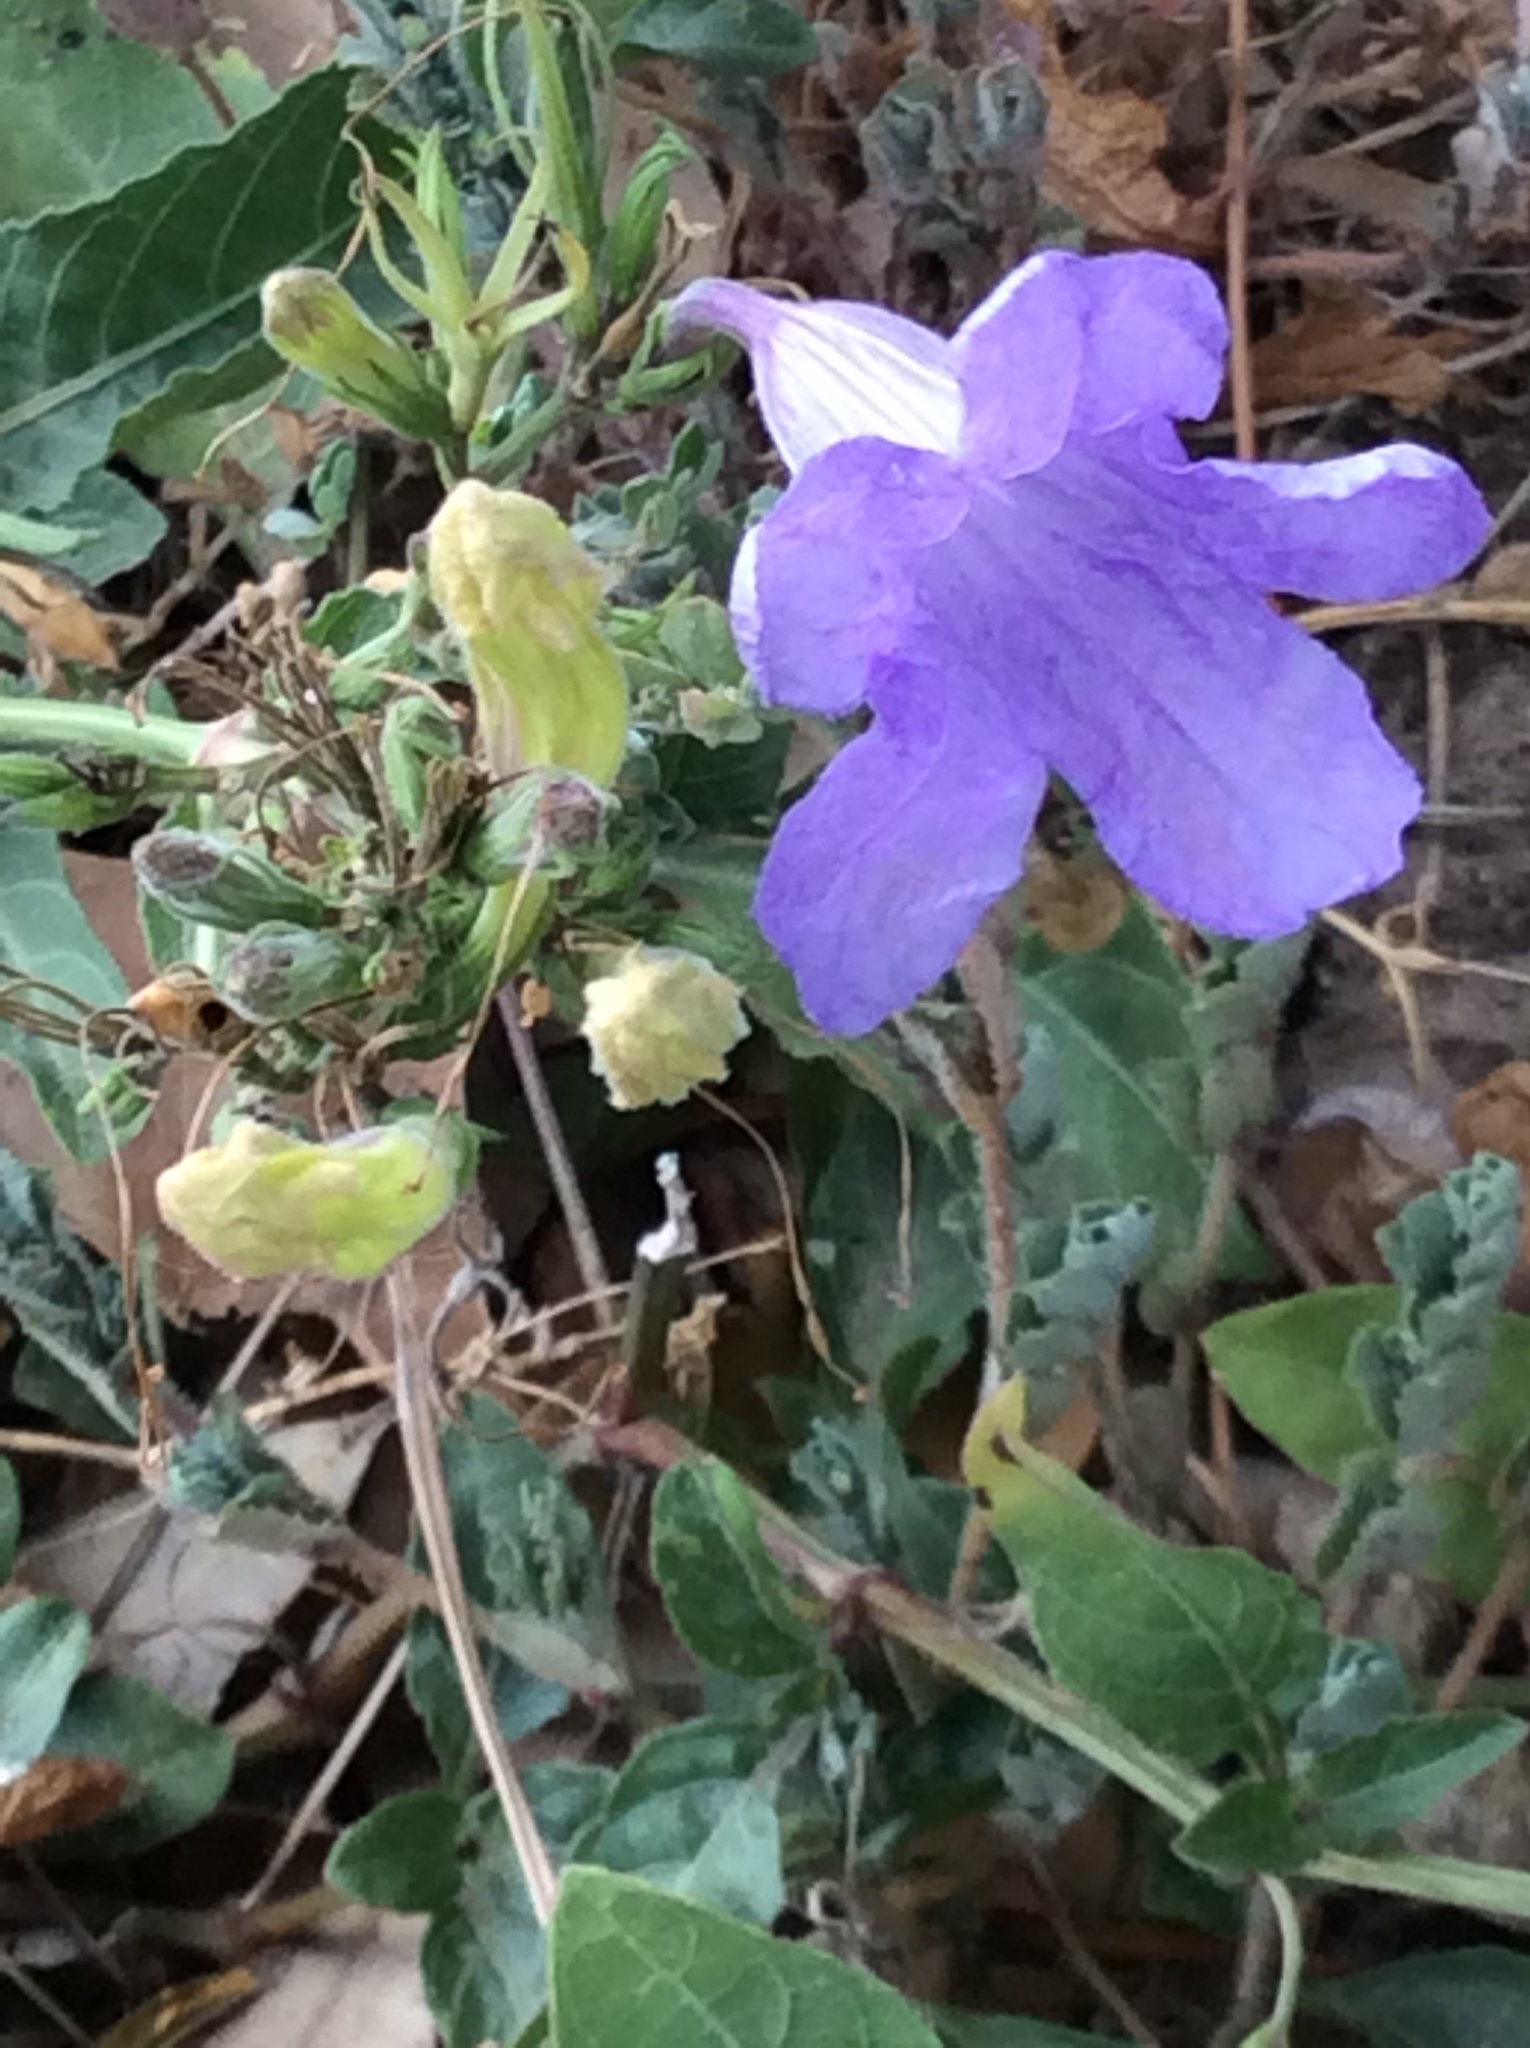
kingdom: Plantae
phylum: Tracheophyta
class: Magnoliopsida
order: Lamiales
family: Acanthaceae
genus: Ruellia
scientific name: Ruellia ciliatiflora
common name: Hairyflower wild petunia
